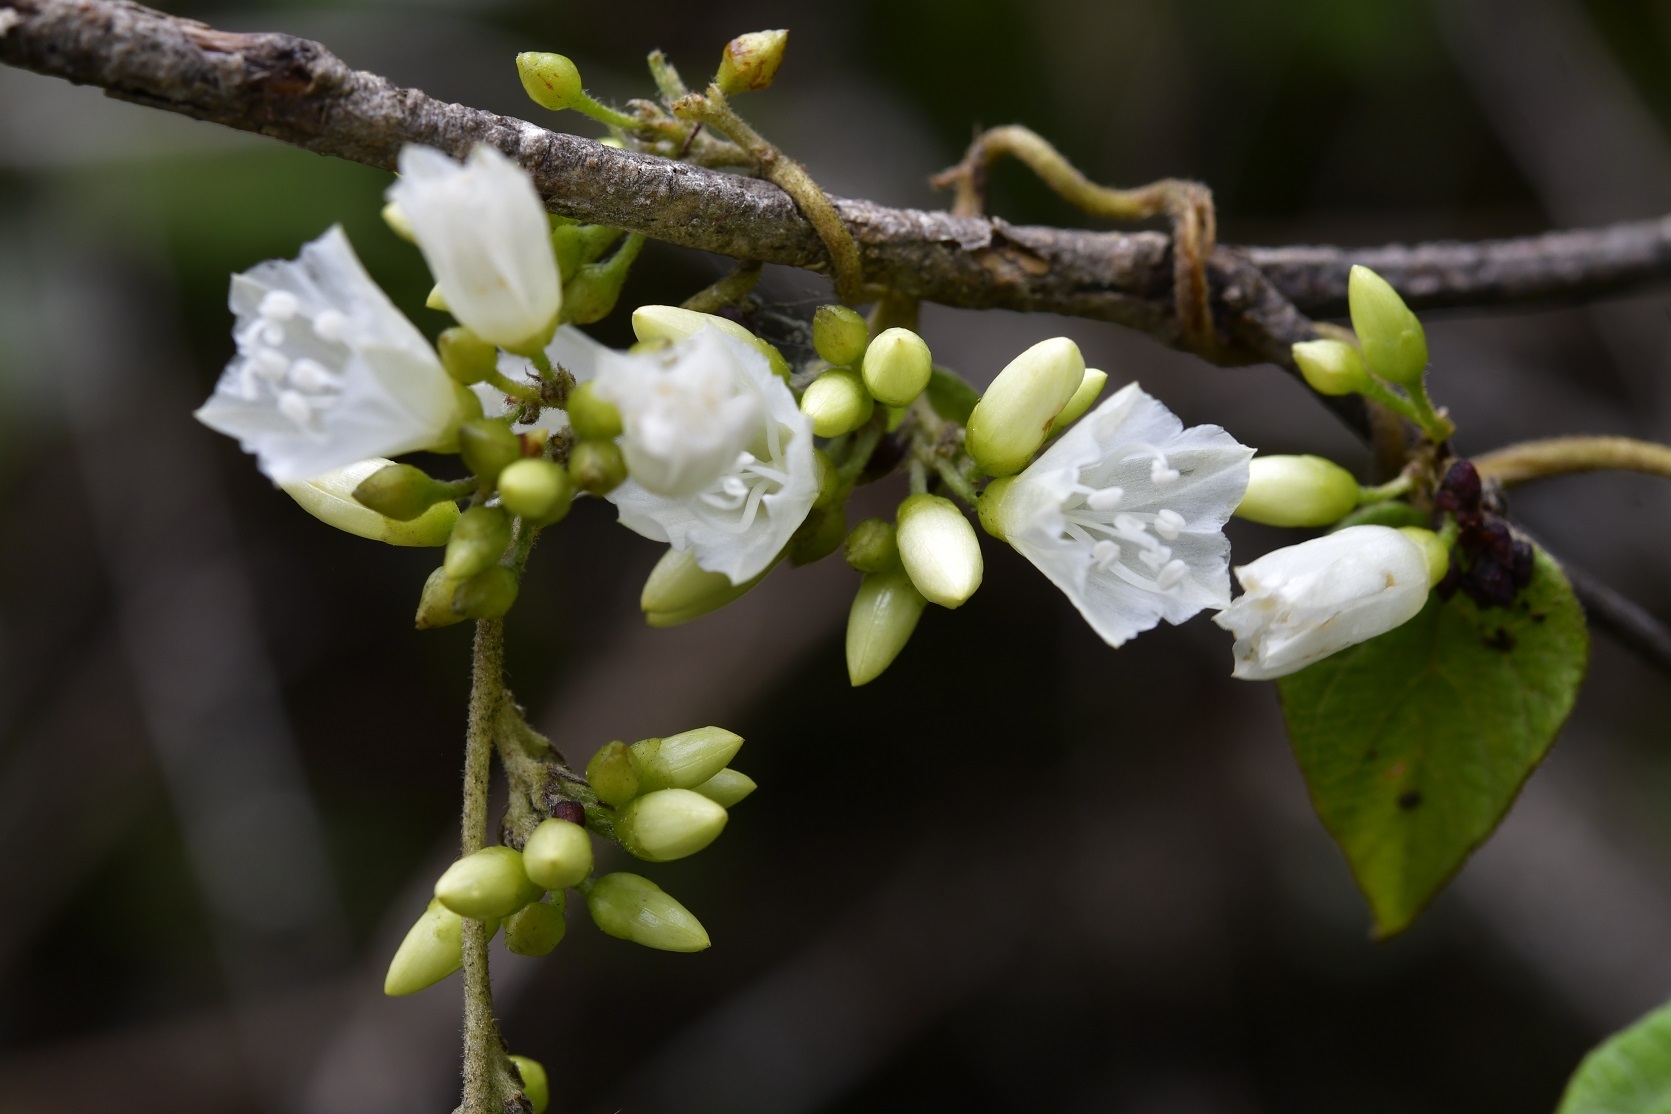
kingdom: Plantae
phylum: Tracheophyta
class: Magnoliopsida
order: Solanales
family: Convolvulaceae
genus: Jacquemontia
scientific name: Jacquemontia nodiflora
